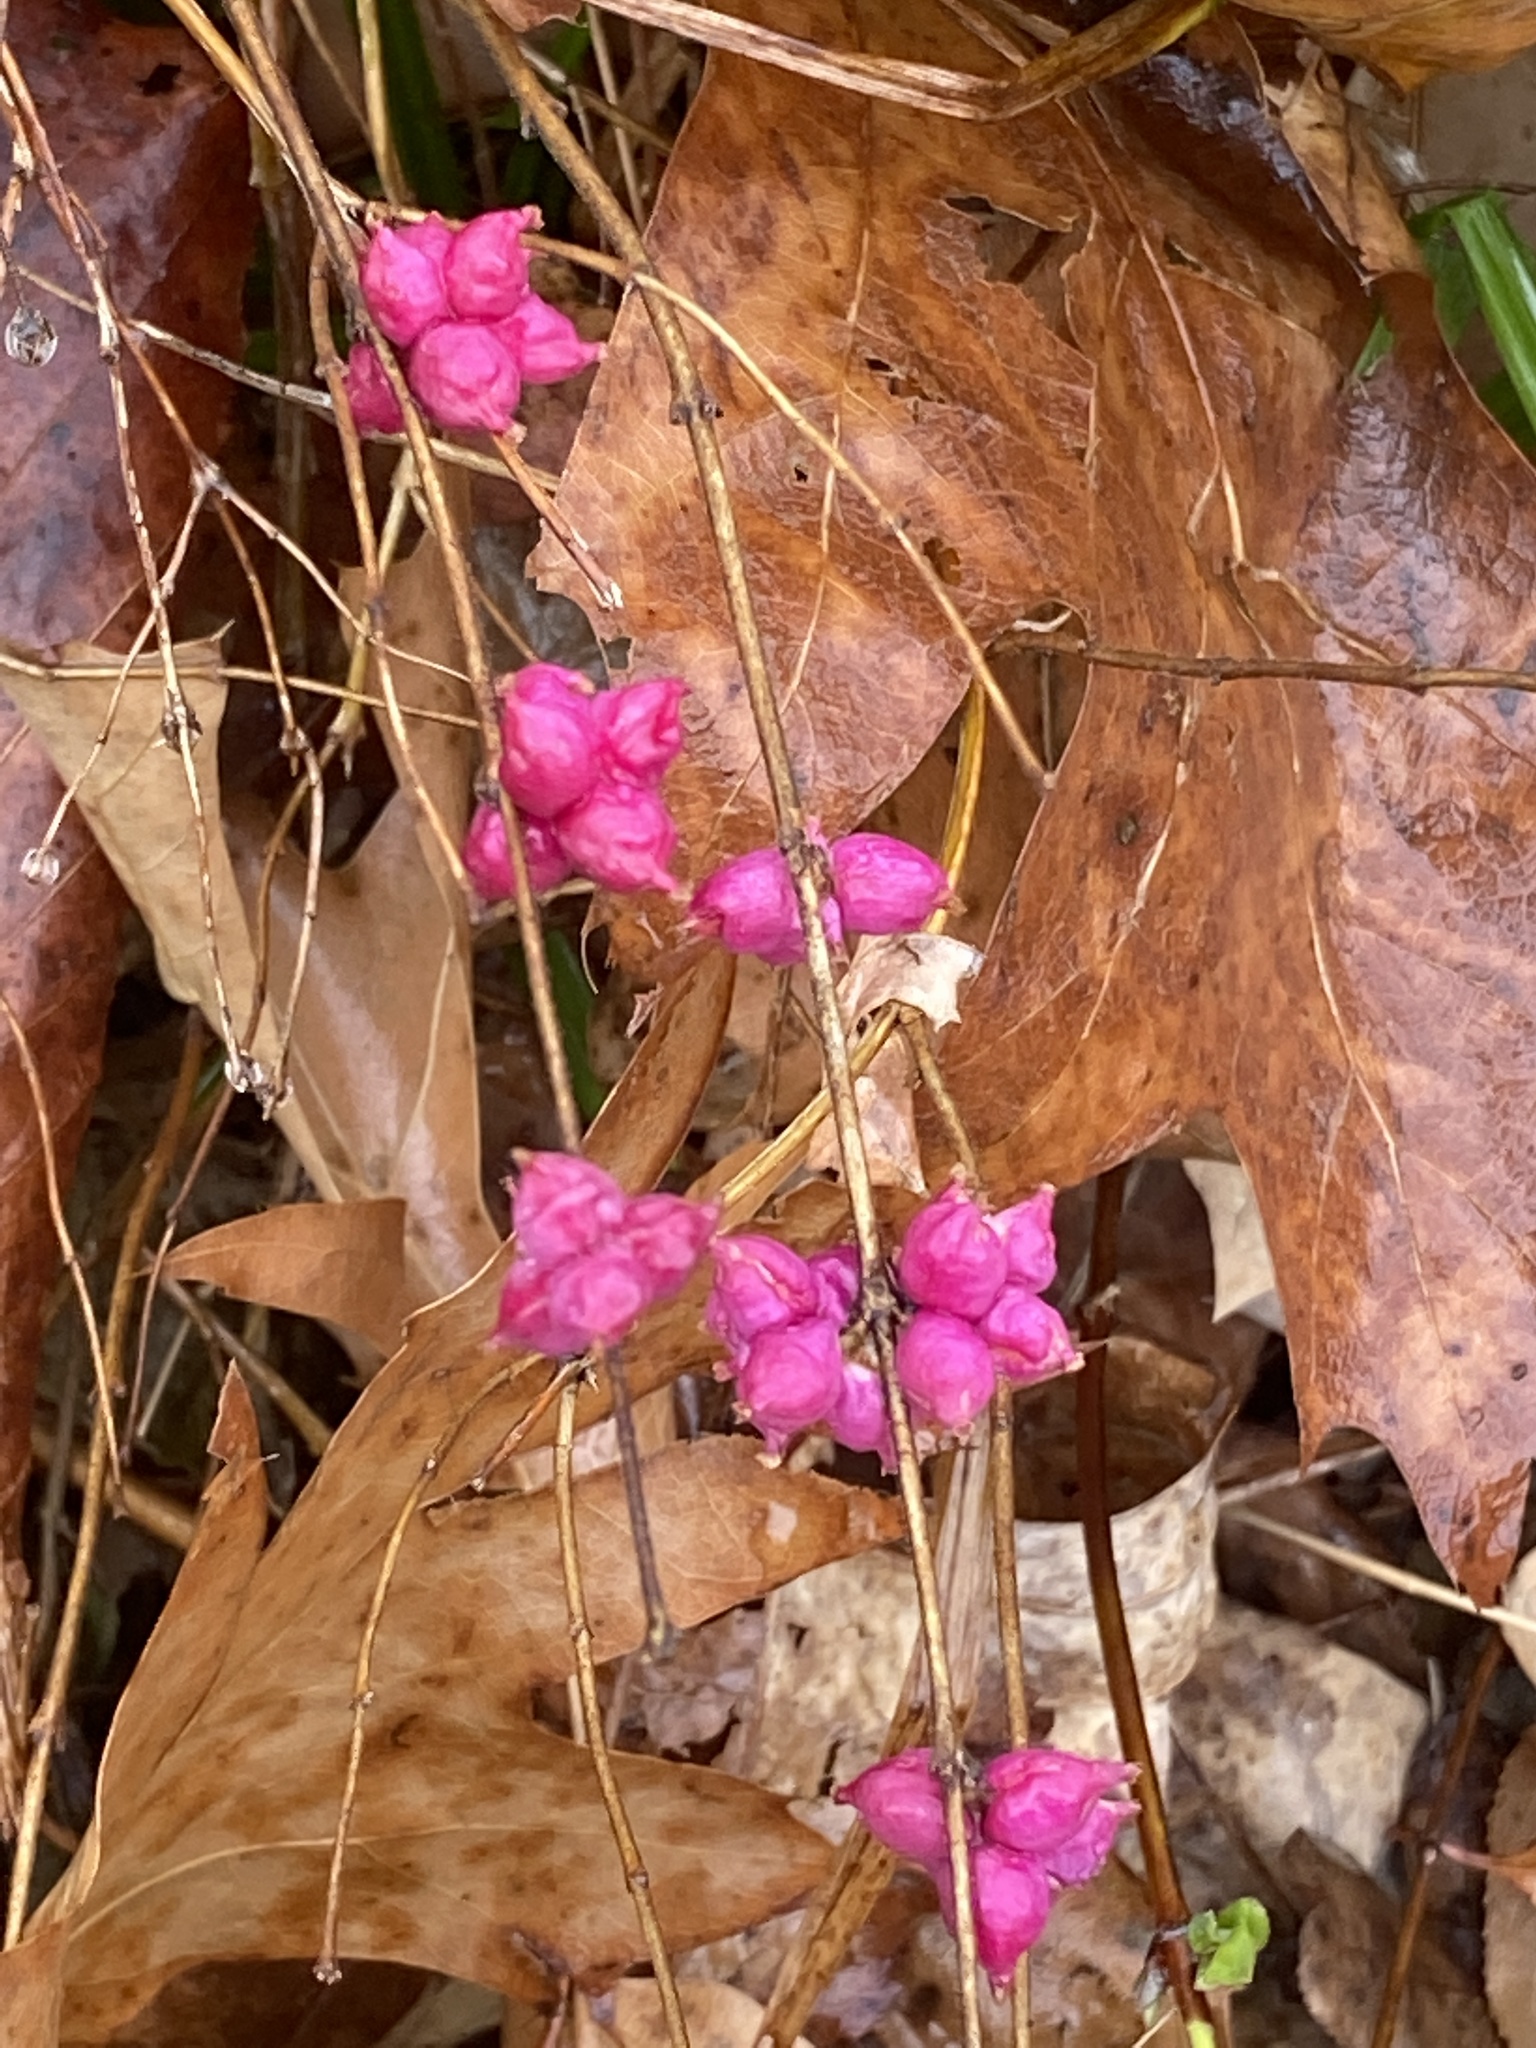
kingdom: Plantae
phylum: Tracheophyta
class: Magnoliopsida
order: Dipsacales
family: Caprifoliaceae
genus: Symphoricarpos
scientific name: Symphoricarpos orbiculatus
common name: Coralberry
